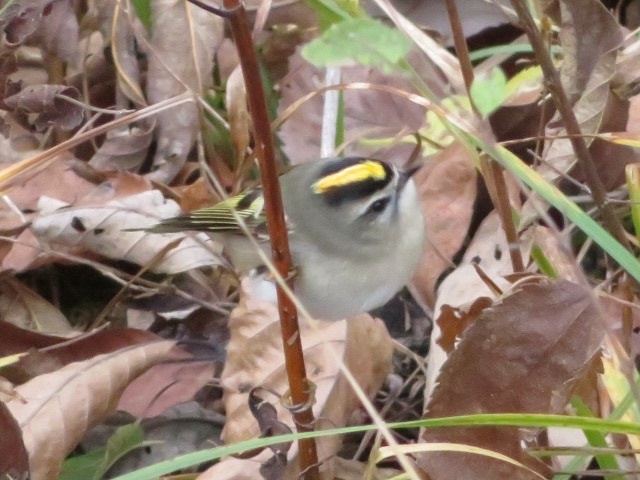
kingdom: Animalia
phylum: Chordata
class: Aves
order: Passeriformes
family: Regulidae
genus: Regulus
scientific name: Regulus satrapa
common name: Golden-crowned kinglet
